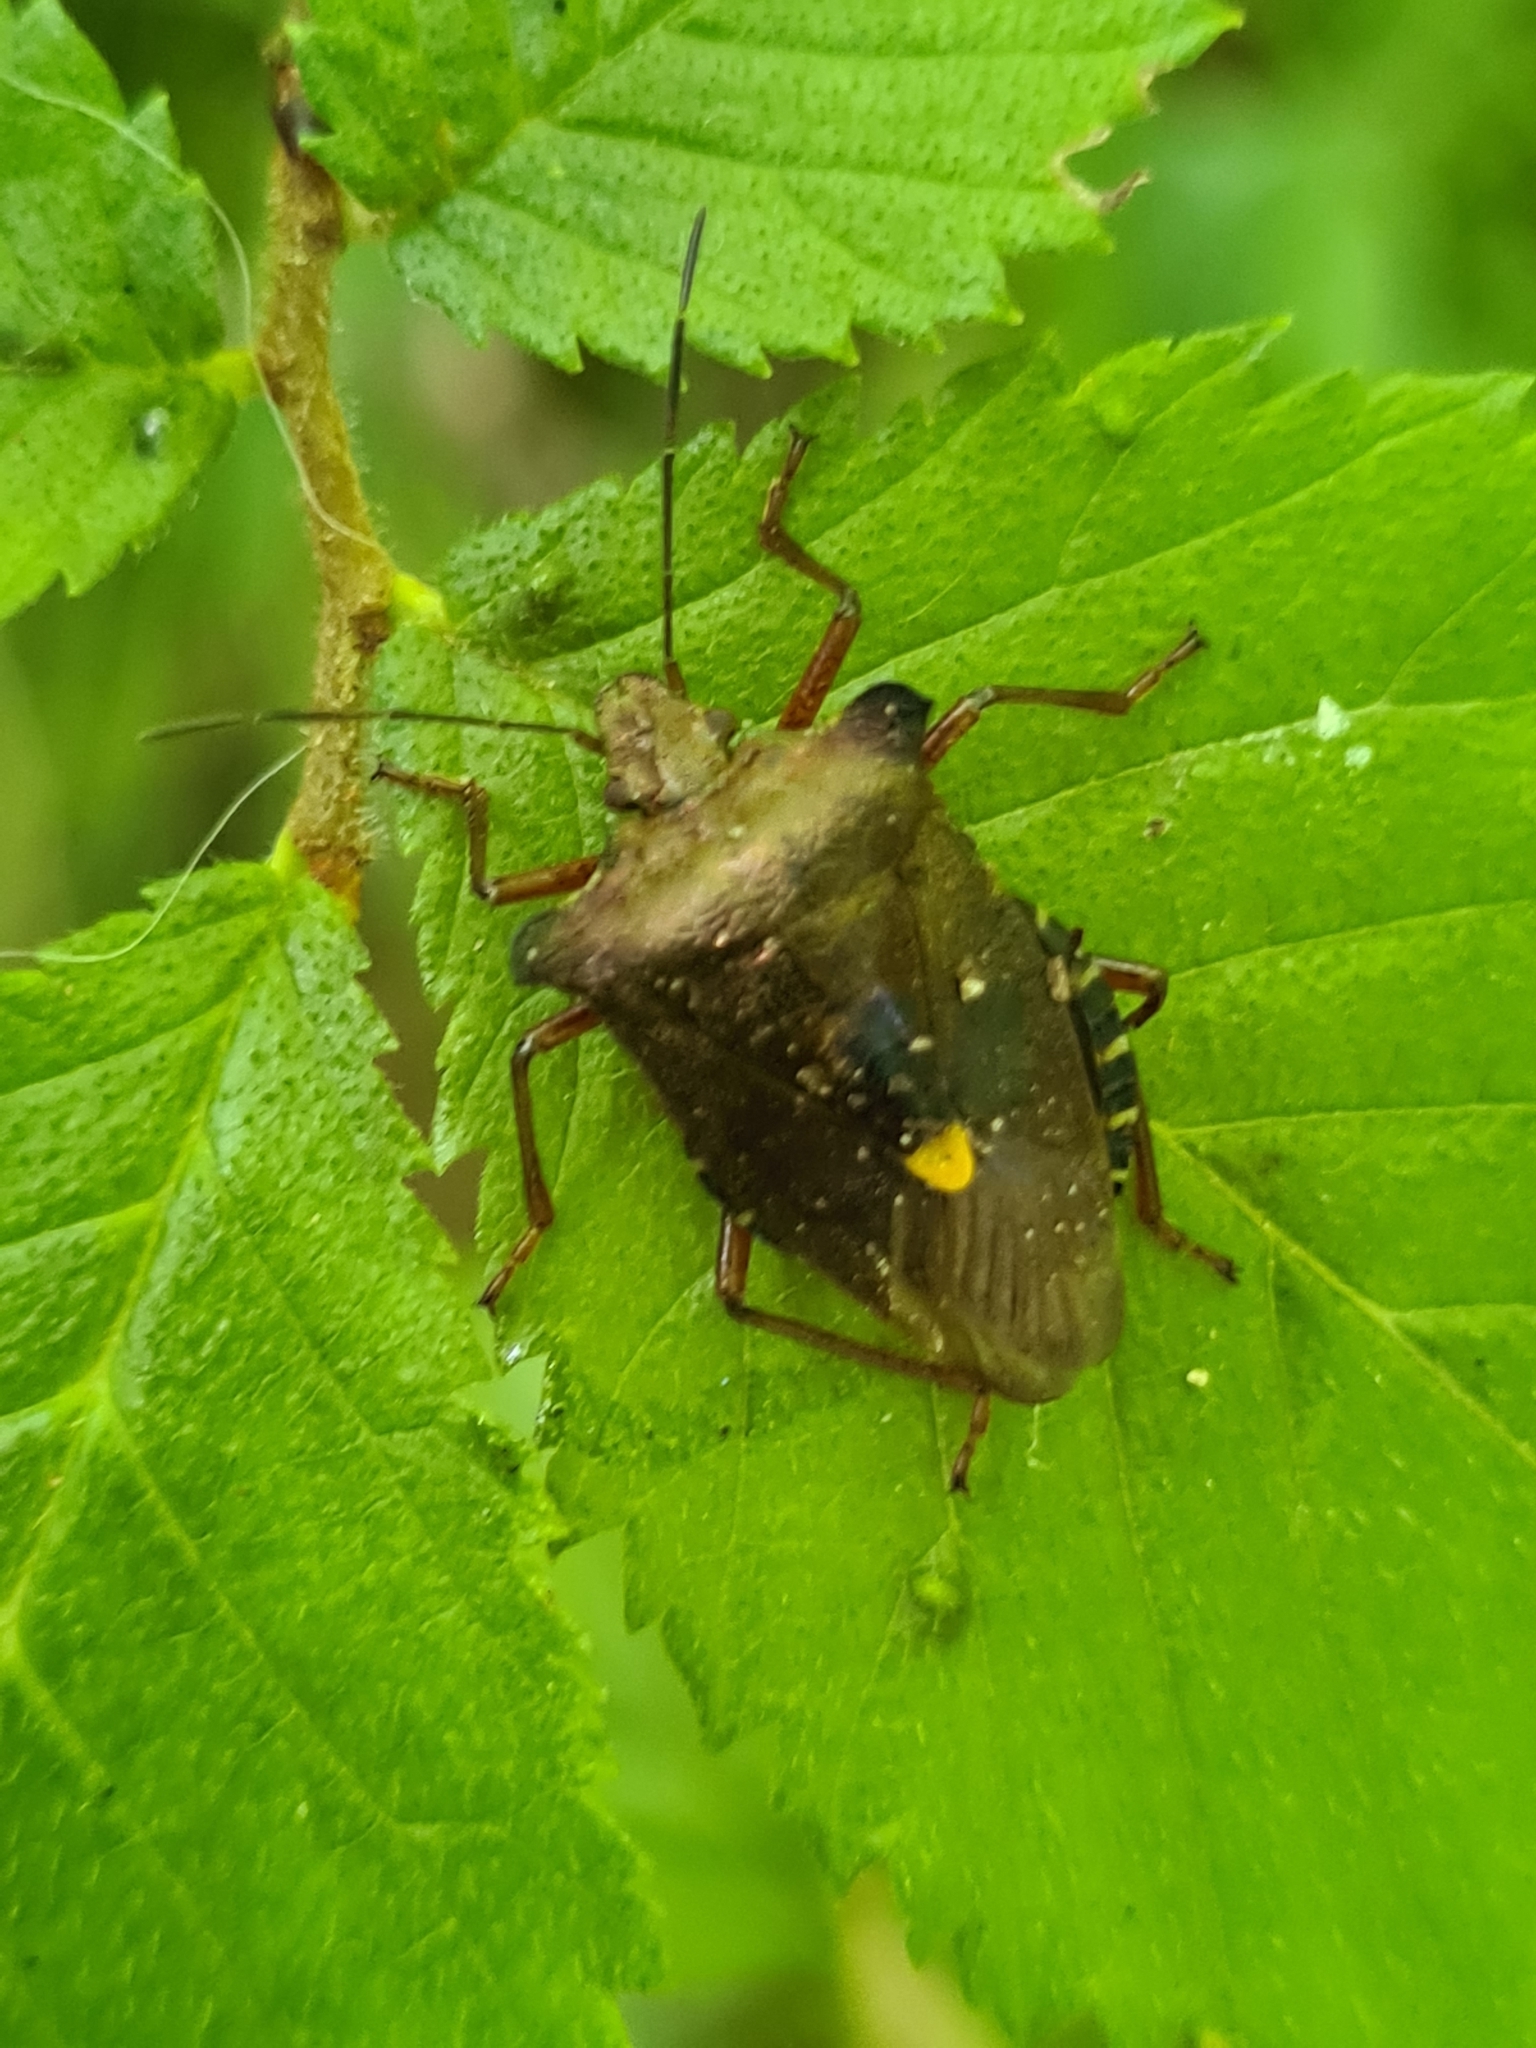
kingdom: Animalia
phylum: Arthropoda
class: Insecta
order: Hemiptera
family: Pentatomidae
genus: Pentatoma
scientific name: Pentatoma rufipes
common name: Forest bug
